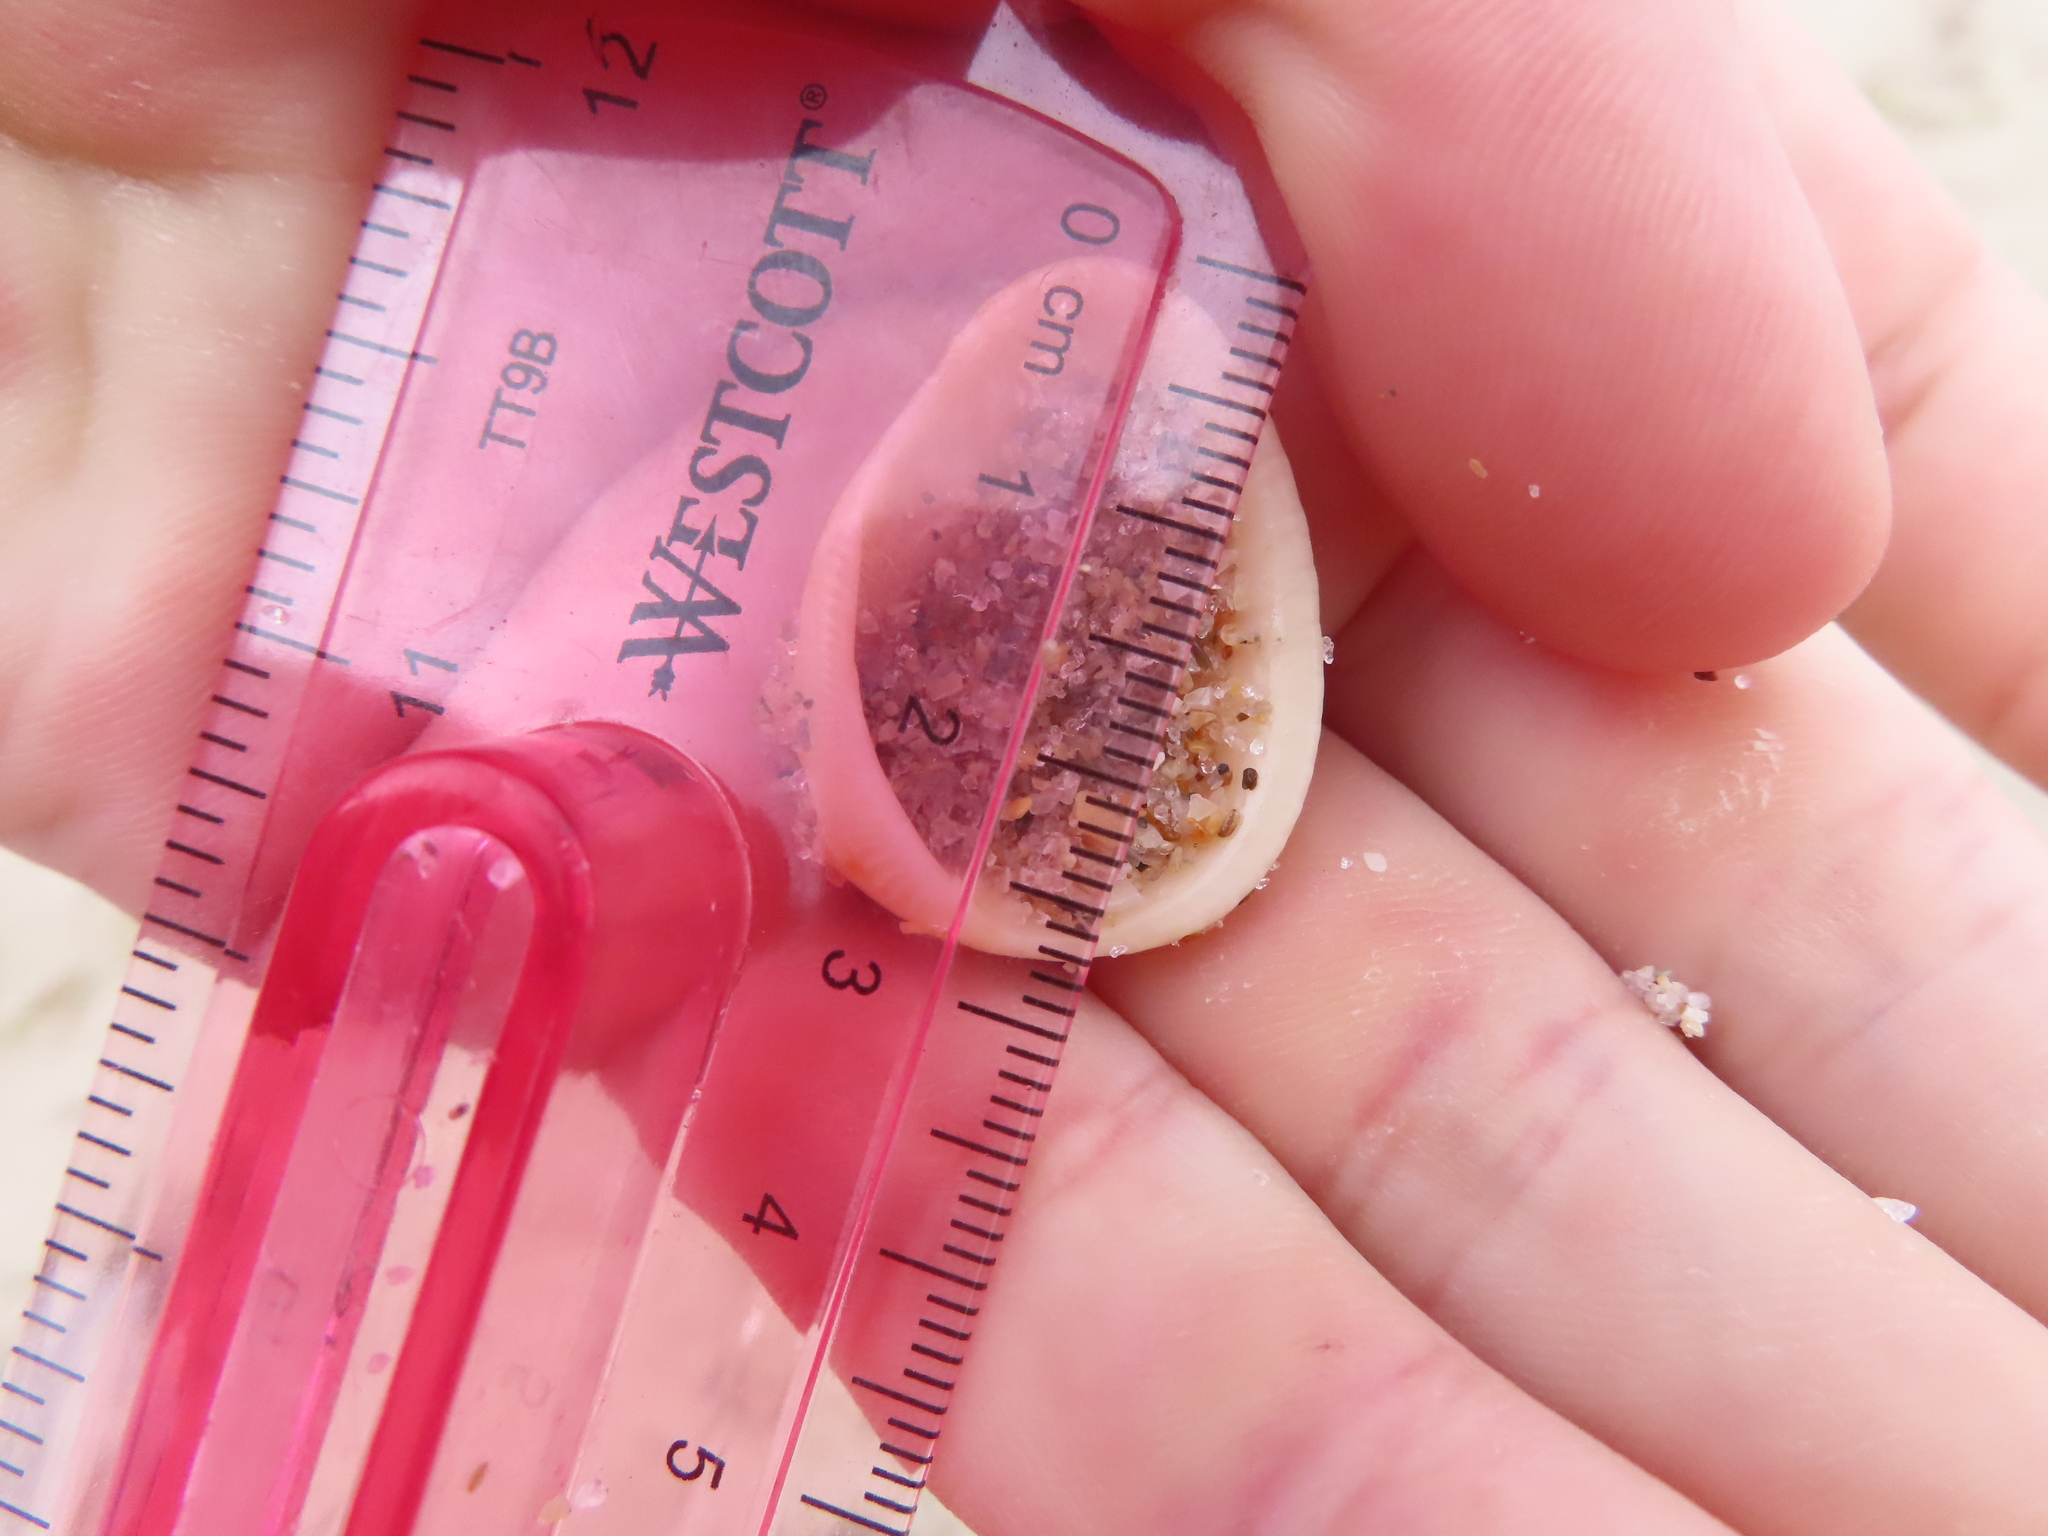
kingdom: Animalia
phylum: Mollusca
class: Bivalvia
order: Arcida
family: Noetiidae
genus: Noetia
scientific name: Noetia ponderosa
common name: Ponderous ark
